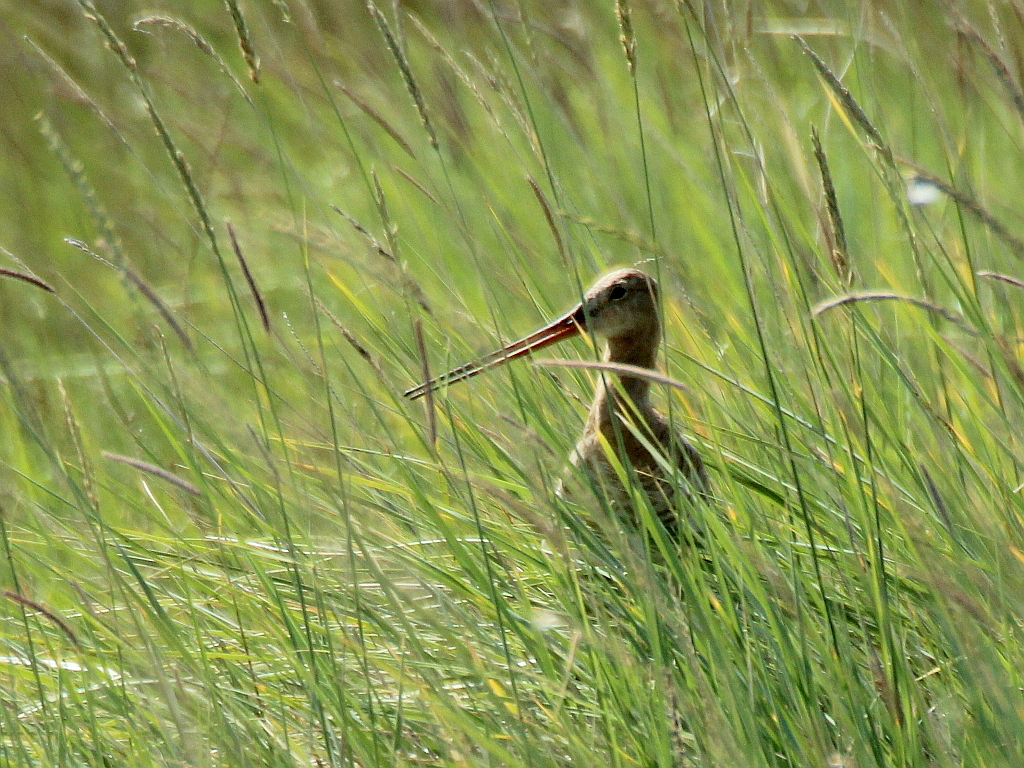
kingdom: Animalia
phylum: Chordata
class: Aves
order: Charadriiformes
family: Scolopacidae
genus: Limosa
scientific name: Limosa limosa
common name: Black-tailed godwit
